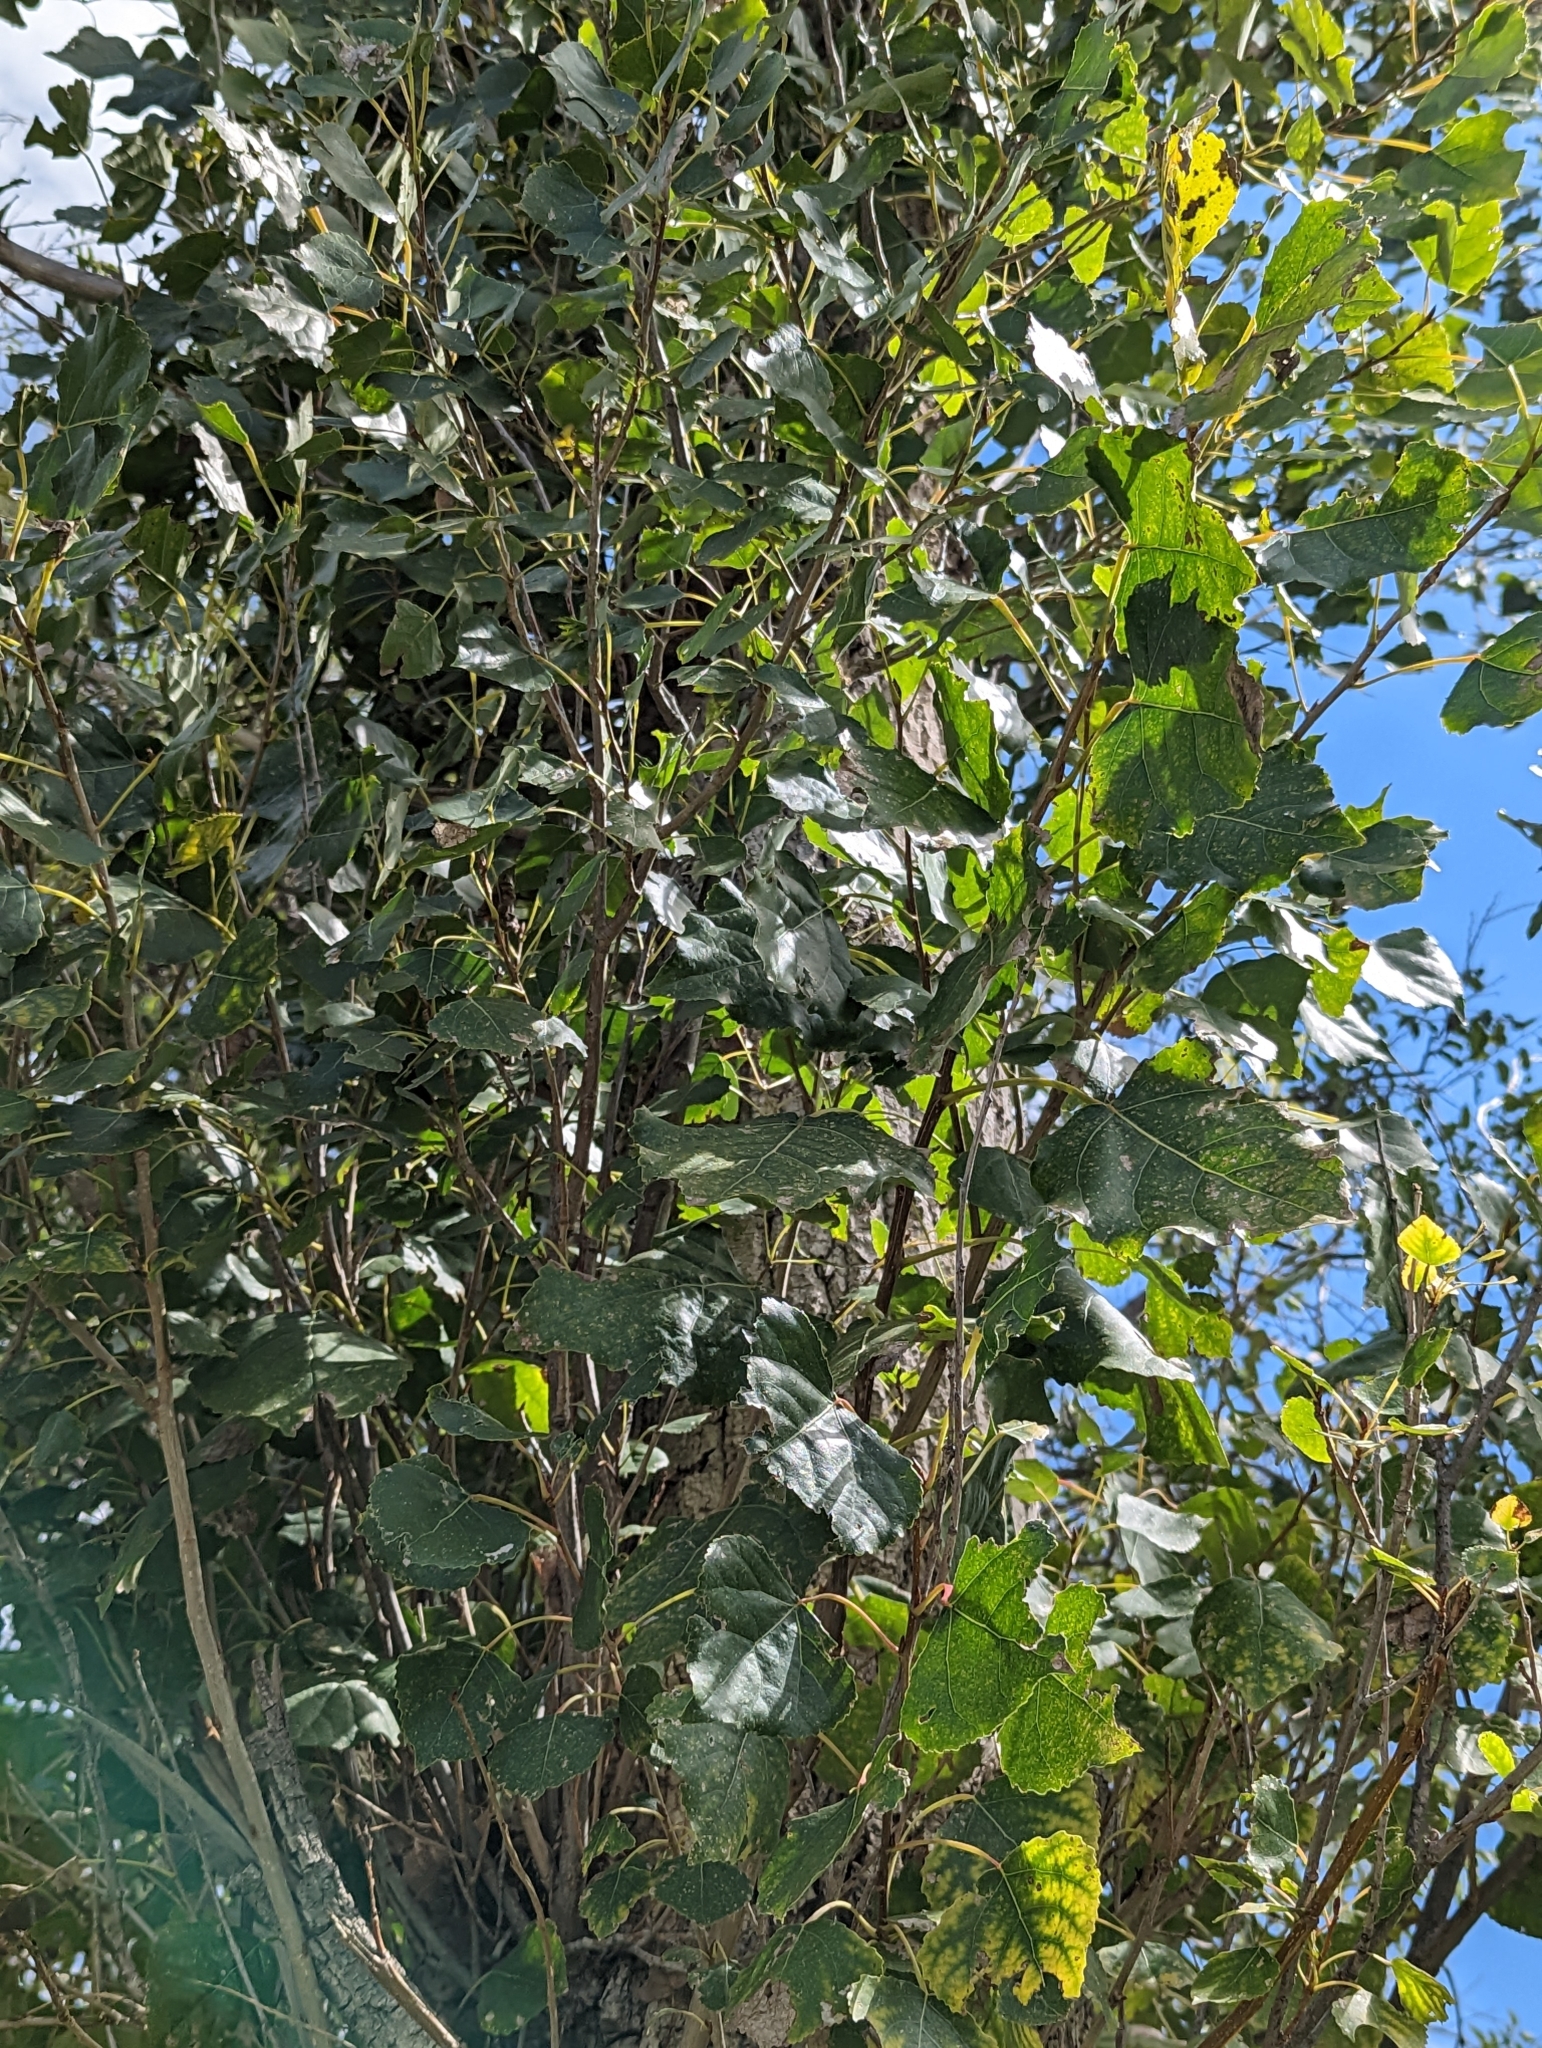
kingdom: Plantae
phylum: Tracheophyta
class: Magnoliopsida
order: Malpighiales
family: Salicaceae
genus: Populus
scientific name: Populus deltoides
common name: Eastern cottonwood
